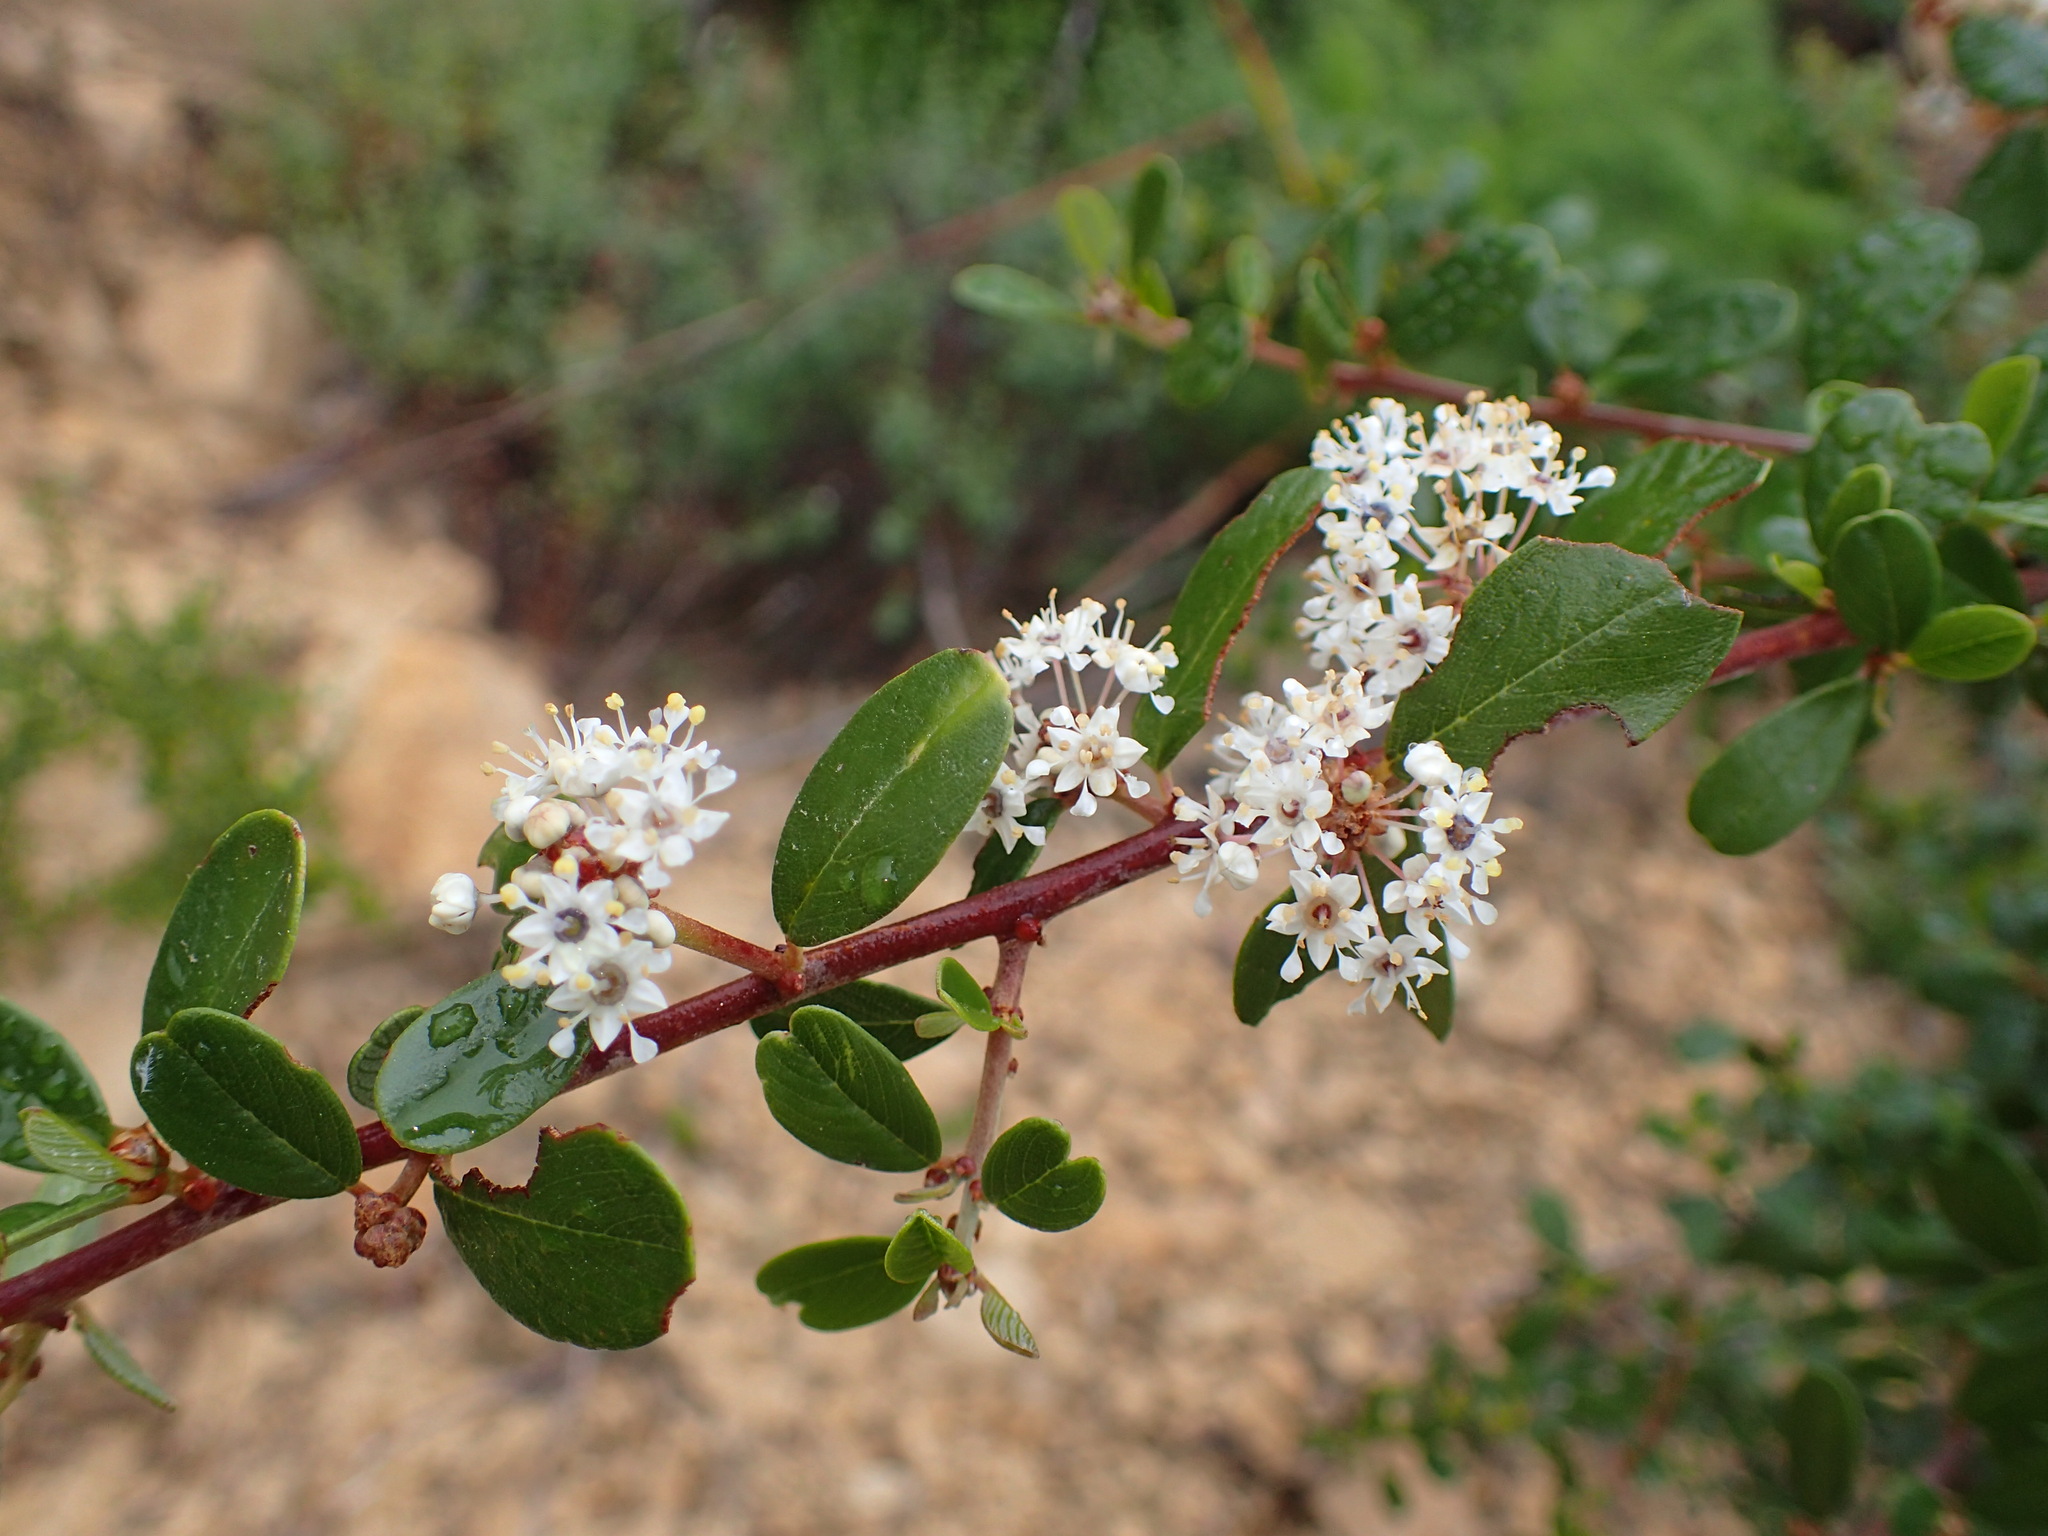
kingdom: Plantae
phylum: Tracheophyta
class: Magnoliopsida
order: Rosales
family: Rhamnaceae
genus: Ceanothus
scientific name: Ceanothus megacarpus
